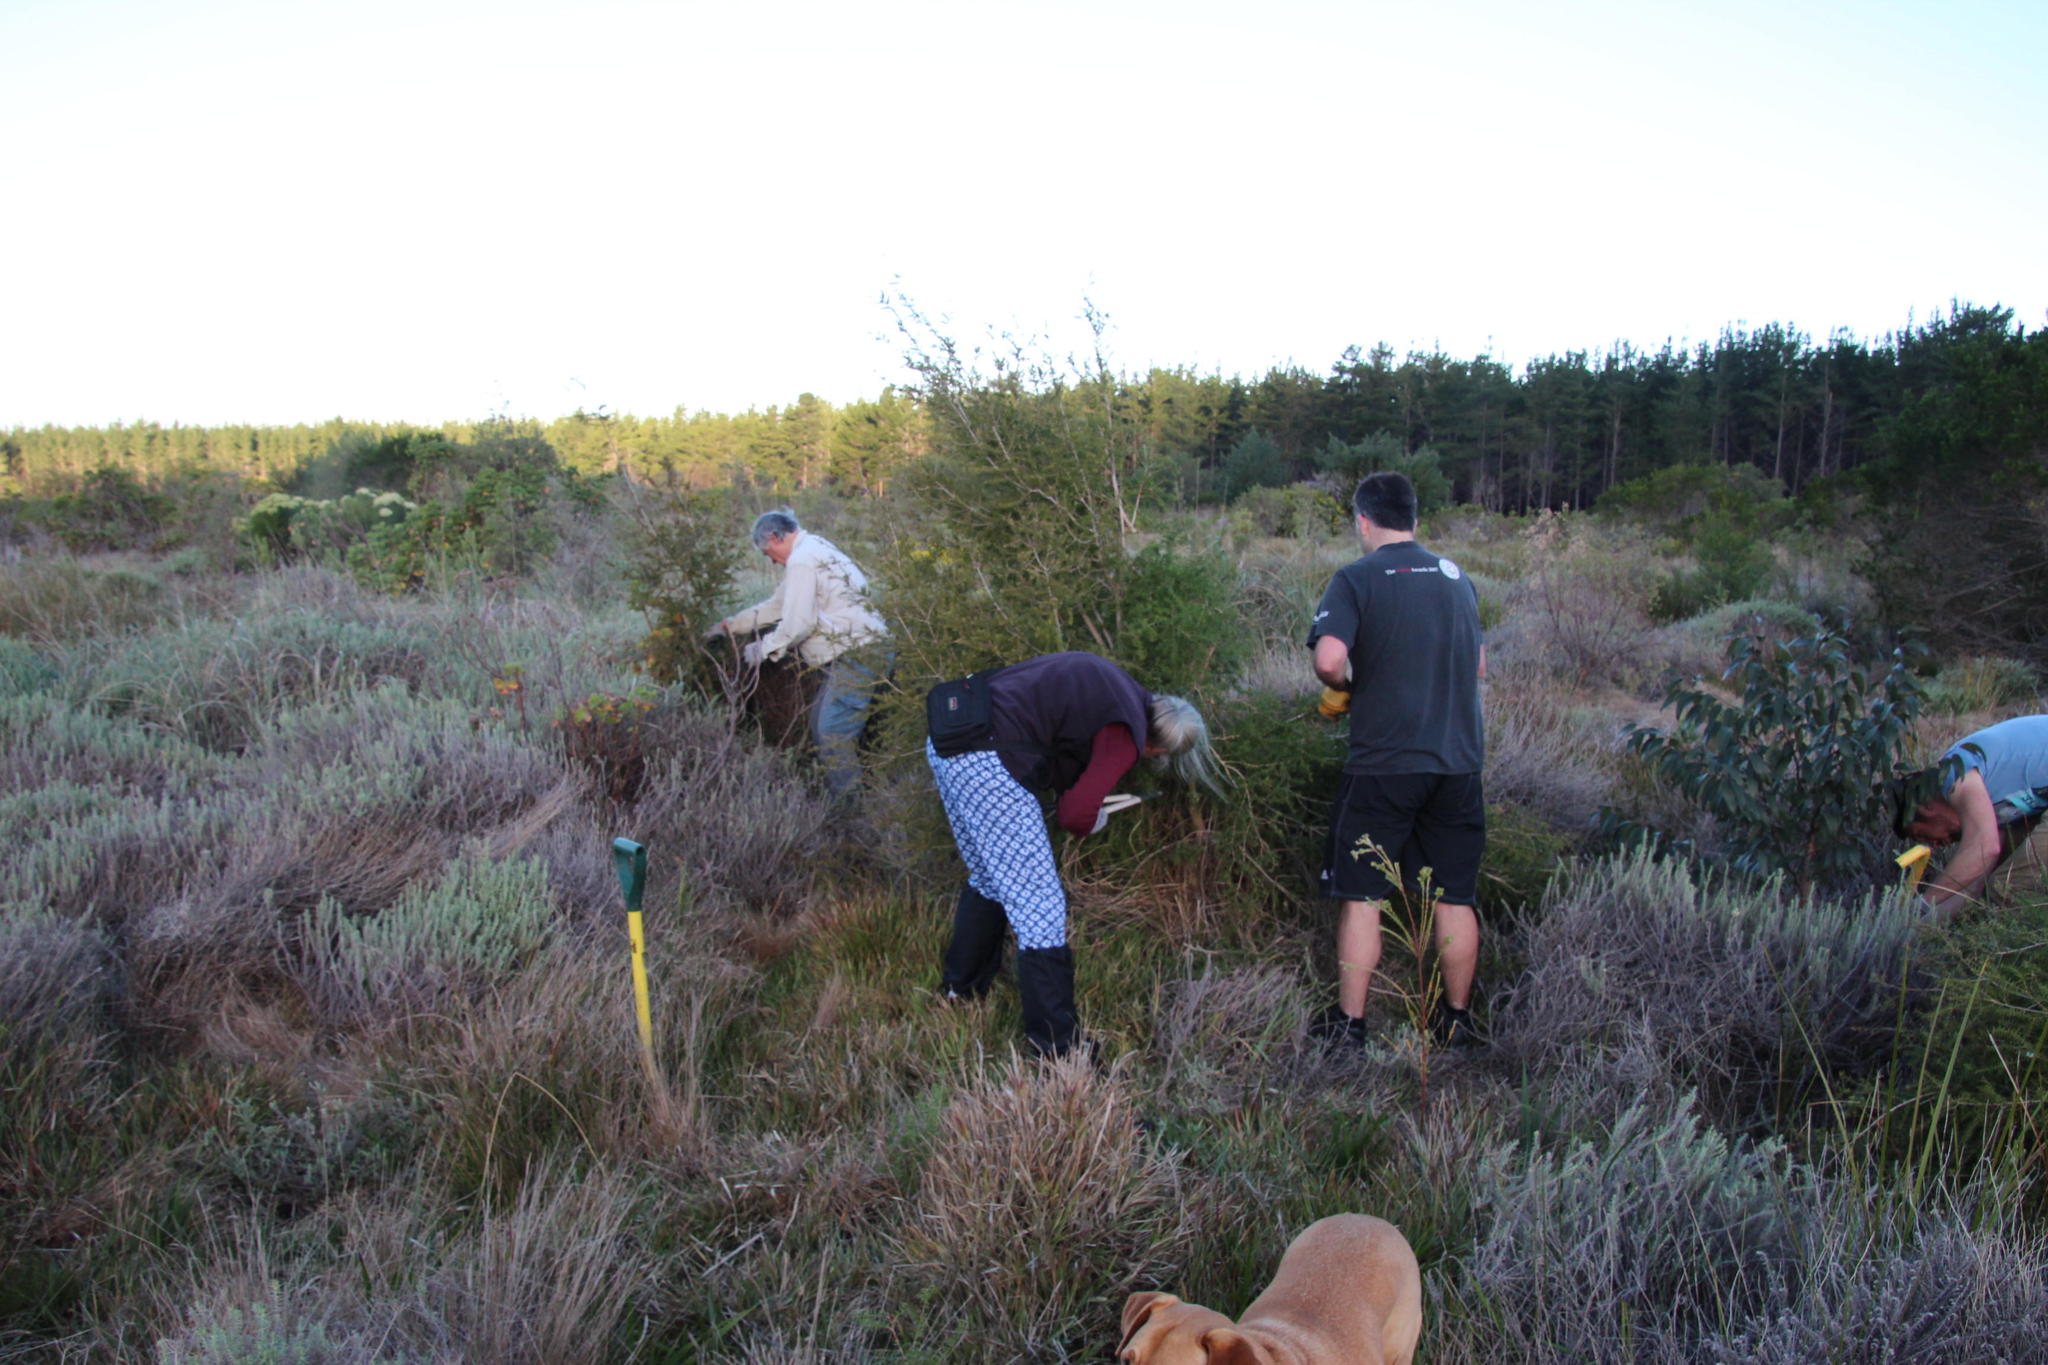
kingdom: Plantae
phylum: Tracheophyta
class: Magnoliopsida
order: Myrtales
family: Myrtaceae
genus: Melaleuca
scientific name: Melaleuca styphelioides
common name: Prickly paperbark
